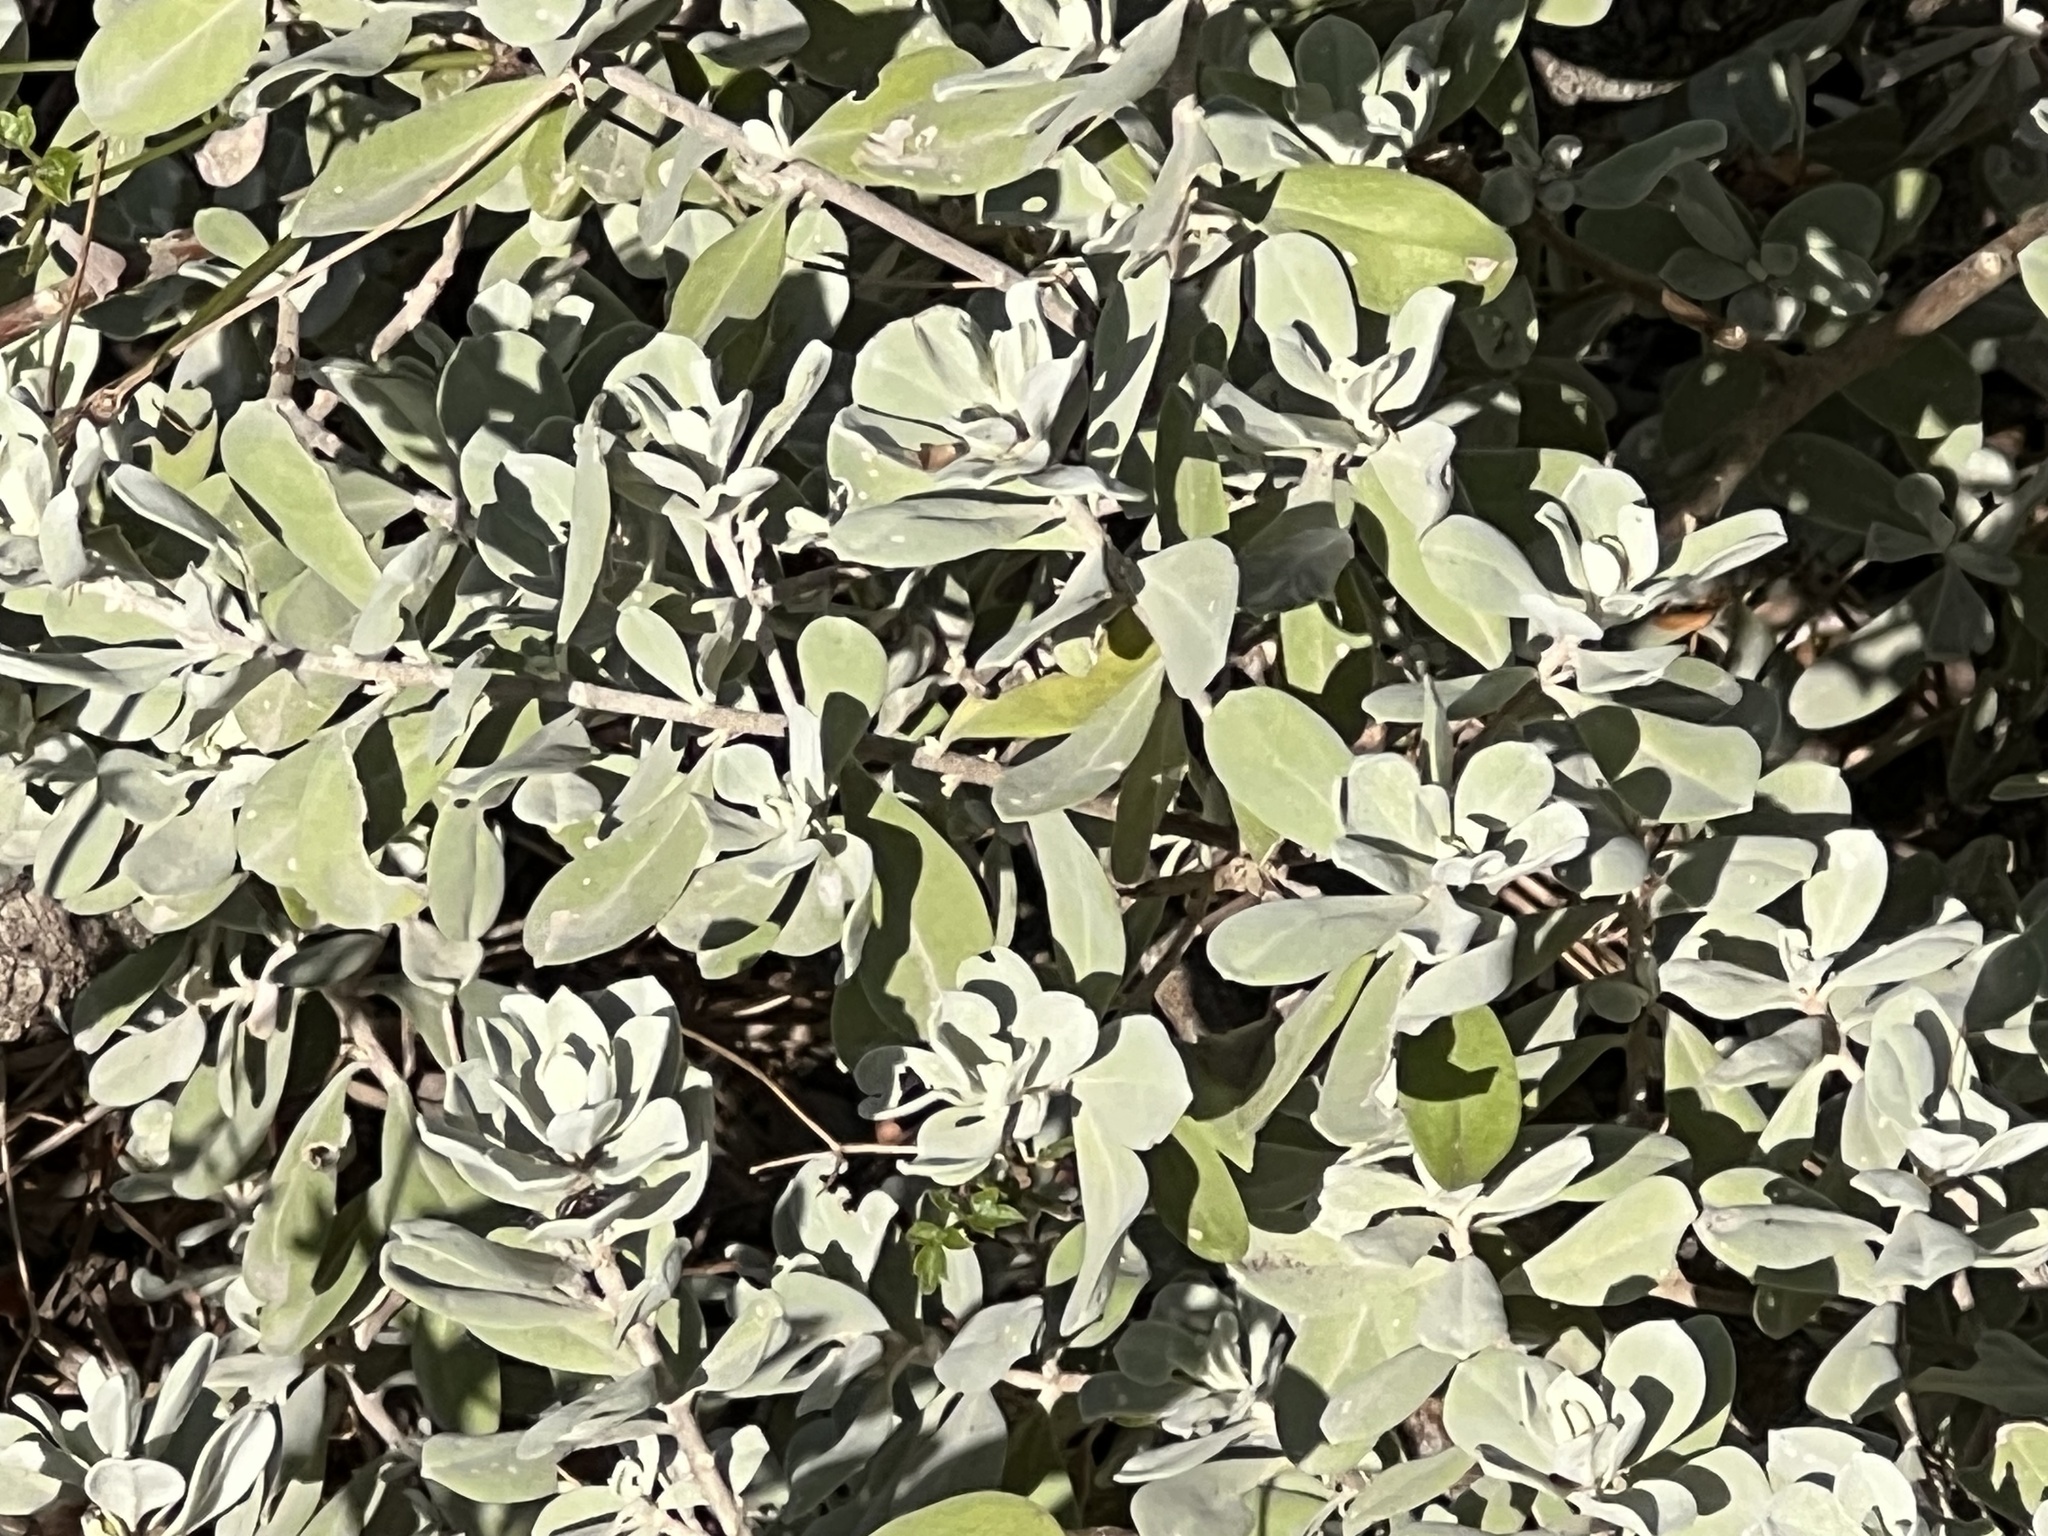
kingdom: Plantae
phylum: Tracheophyta
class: Magnoliopsida
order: Lamiales
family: Scrophulariaceae
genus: Leucophyllum
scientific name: Leucophyllum frutescens
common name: Texas silverleaf
